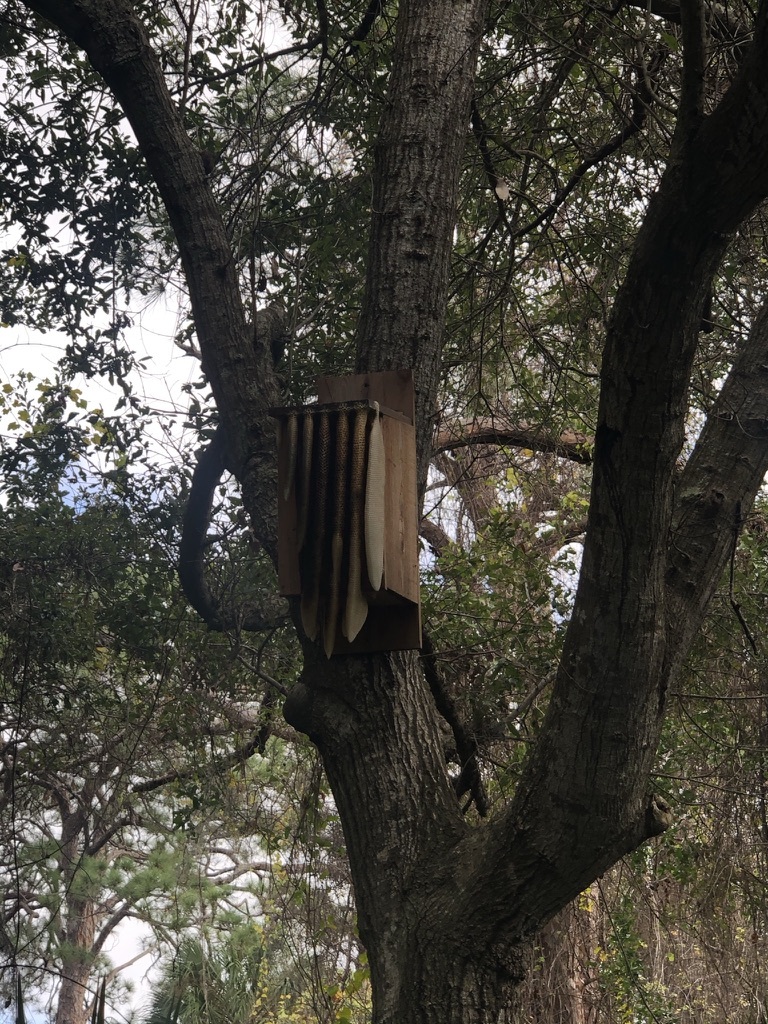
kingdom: Animalia
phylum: Arthropoda
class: Insecta
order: Hymenoptera
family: Apidae
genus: Apis
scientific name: Apis mellifera
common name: Honey bee
